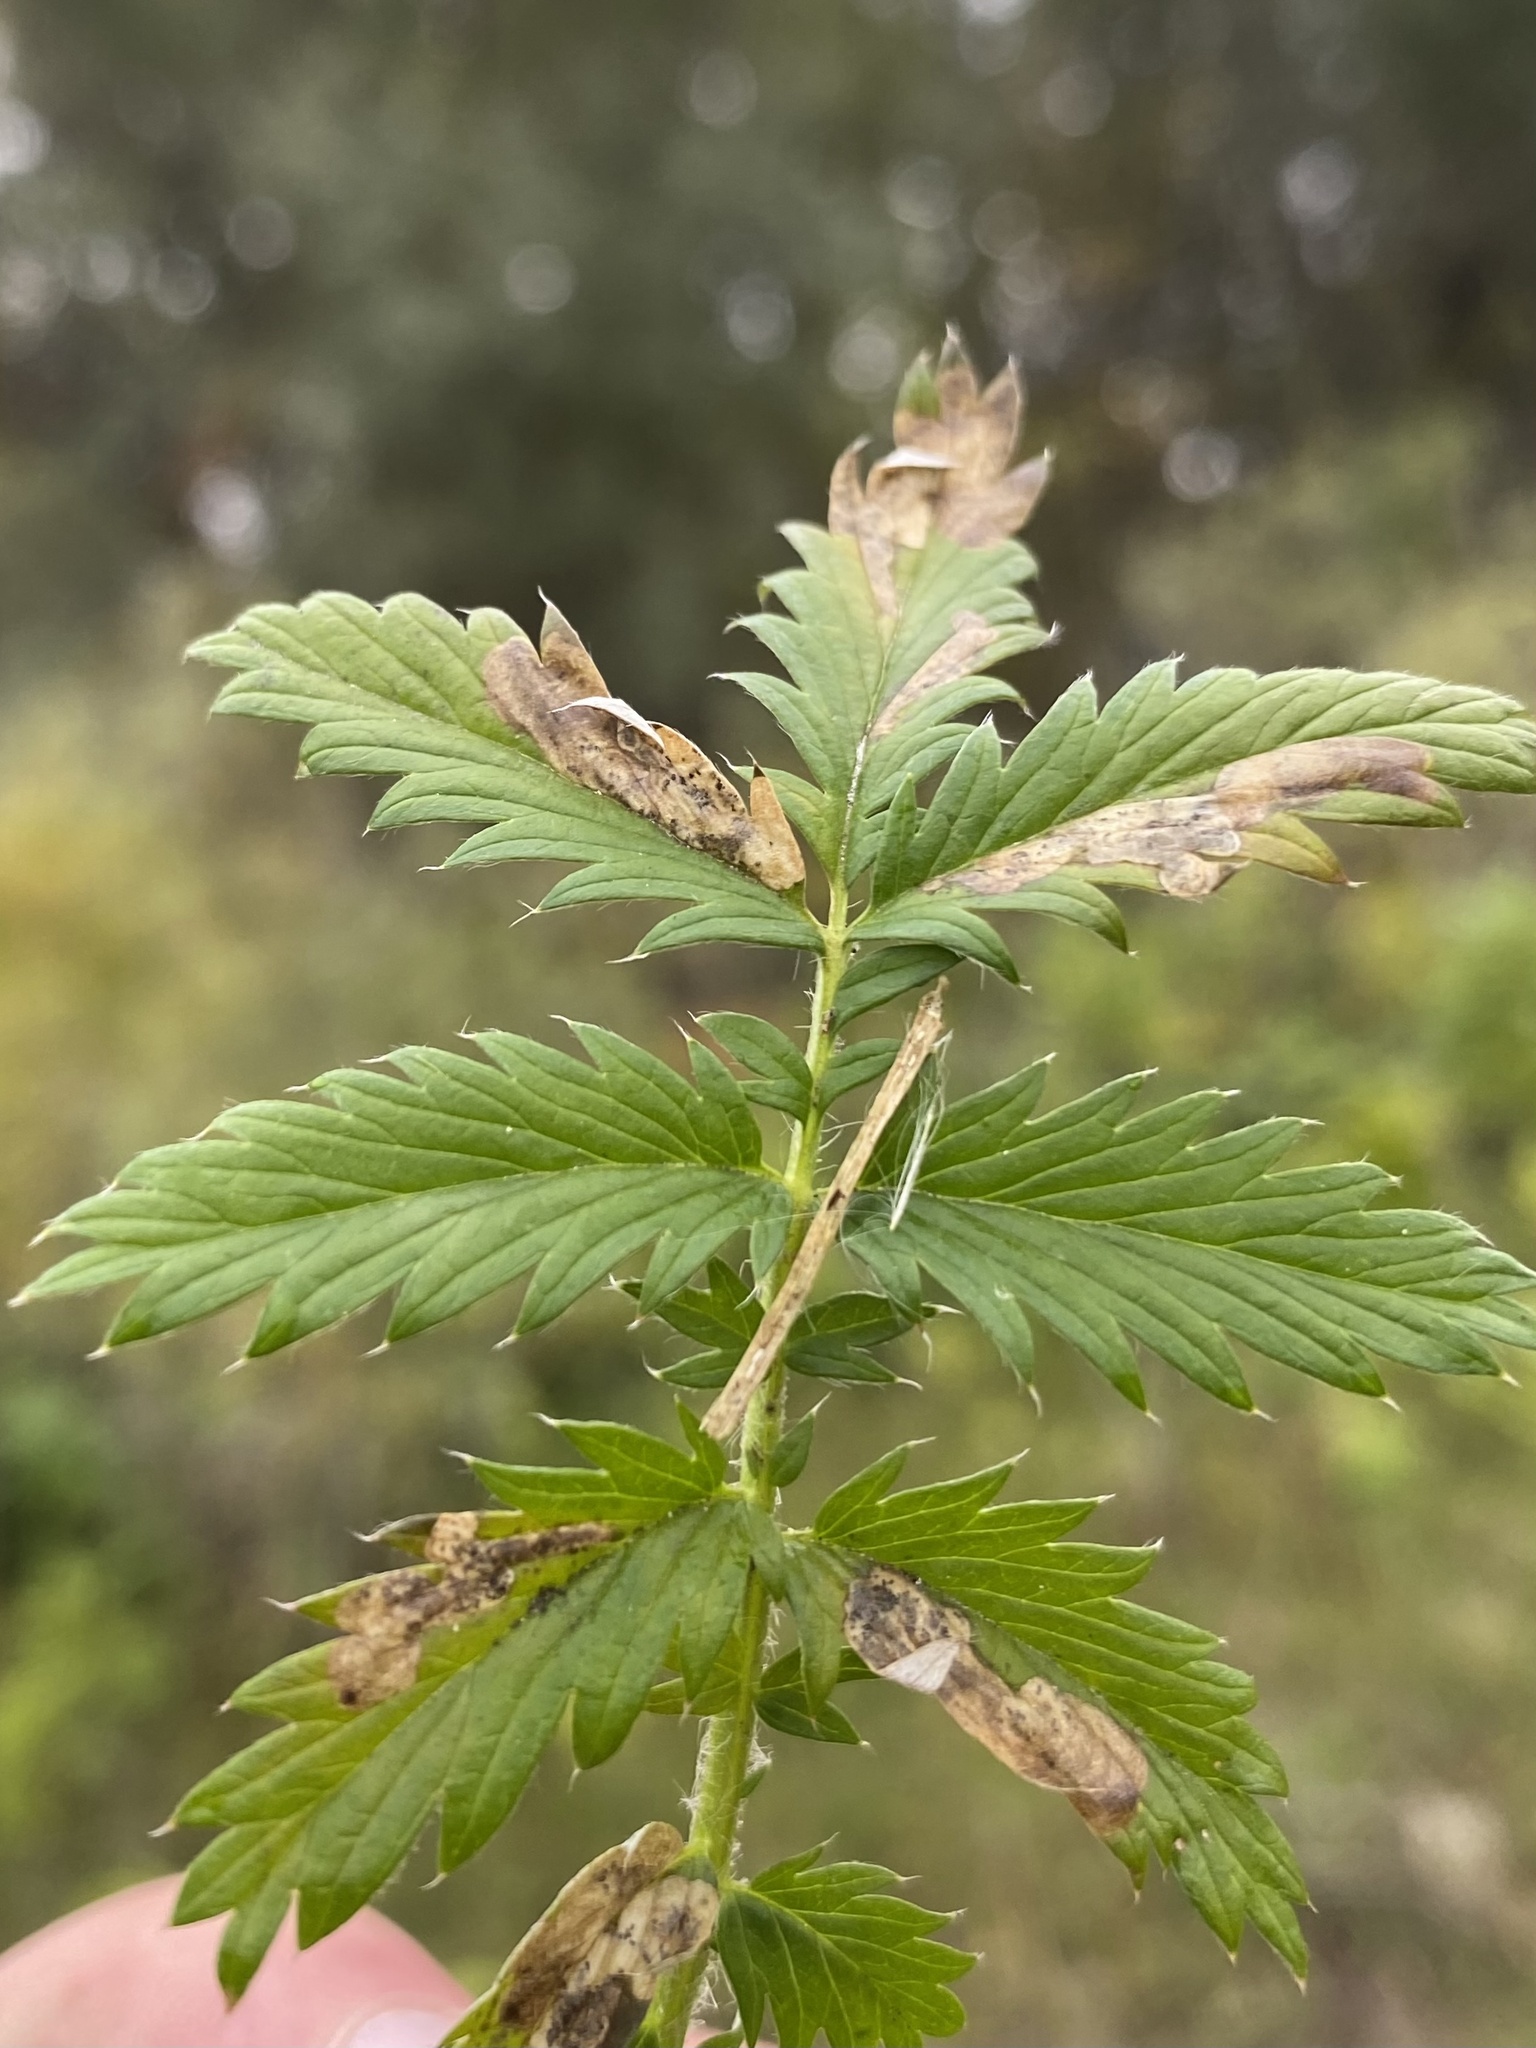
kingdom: Animalia
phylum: Arthropoda
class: Insecta
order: Hymenoptera
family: Tenthredinidae
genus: Fenella
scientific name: Fenella nigrita
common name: Tenthredid wasp
